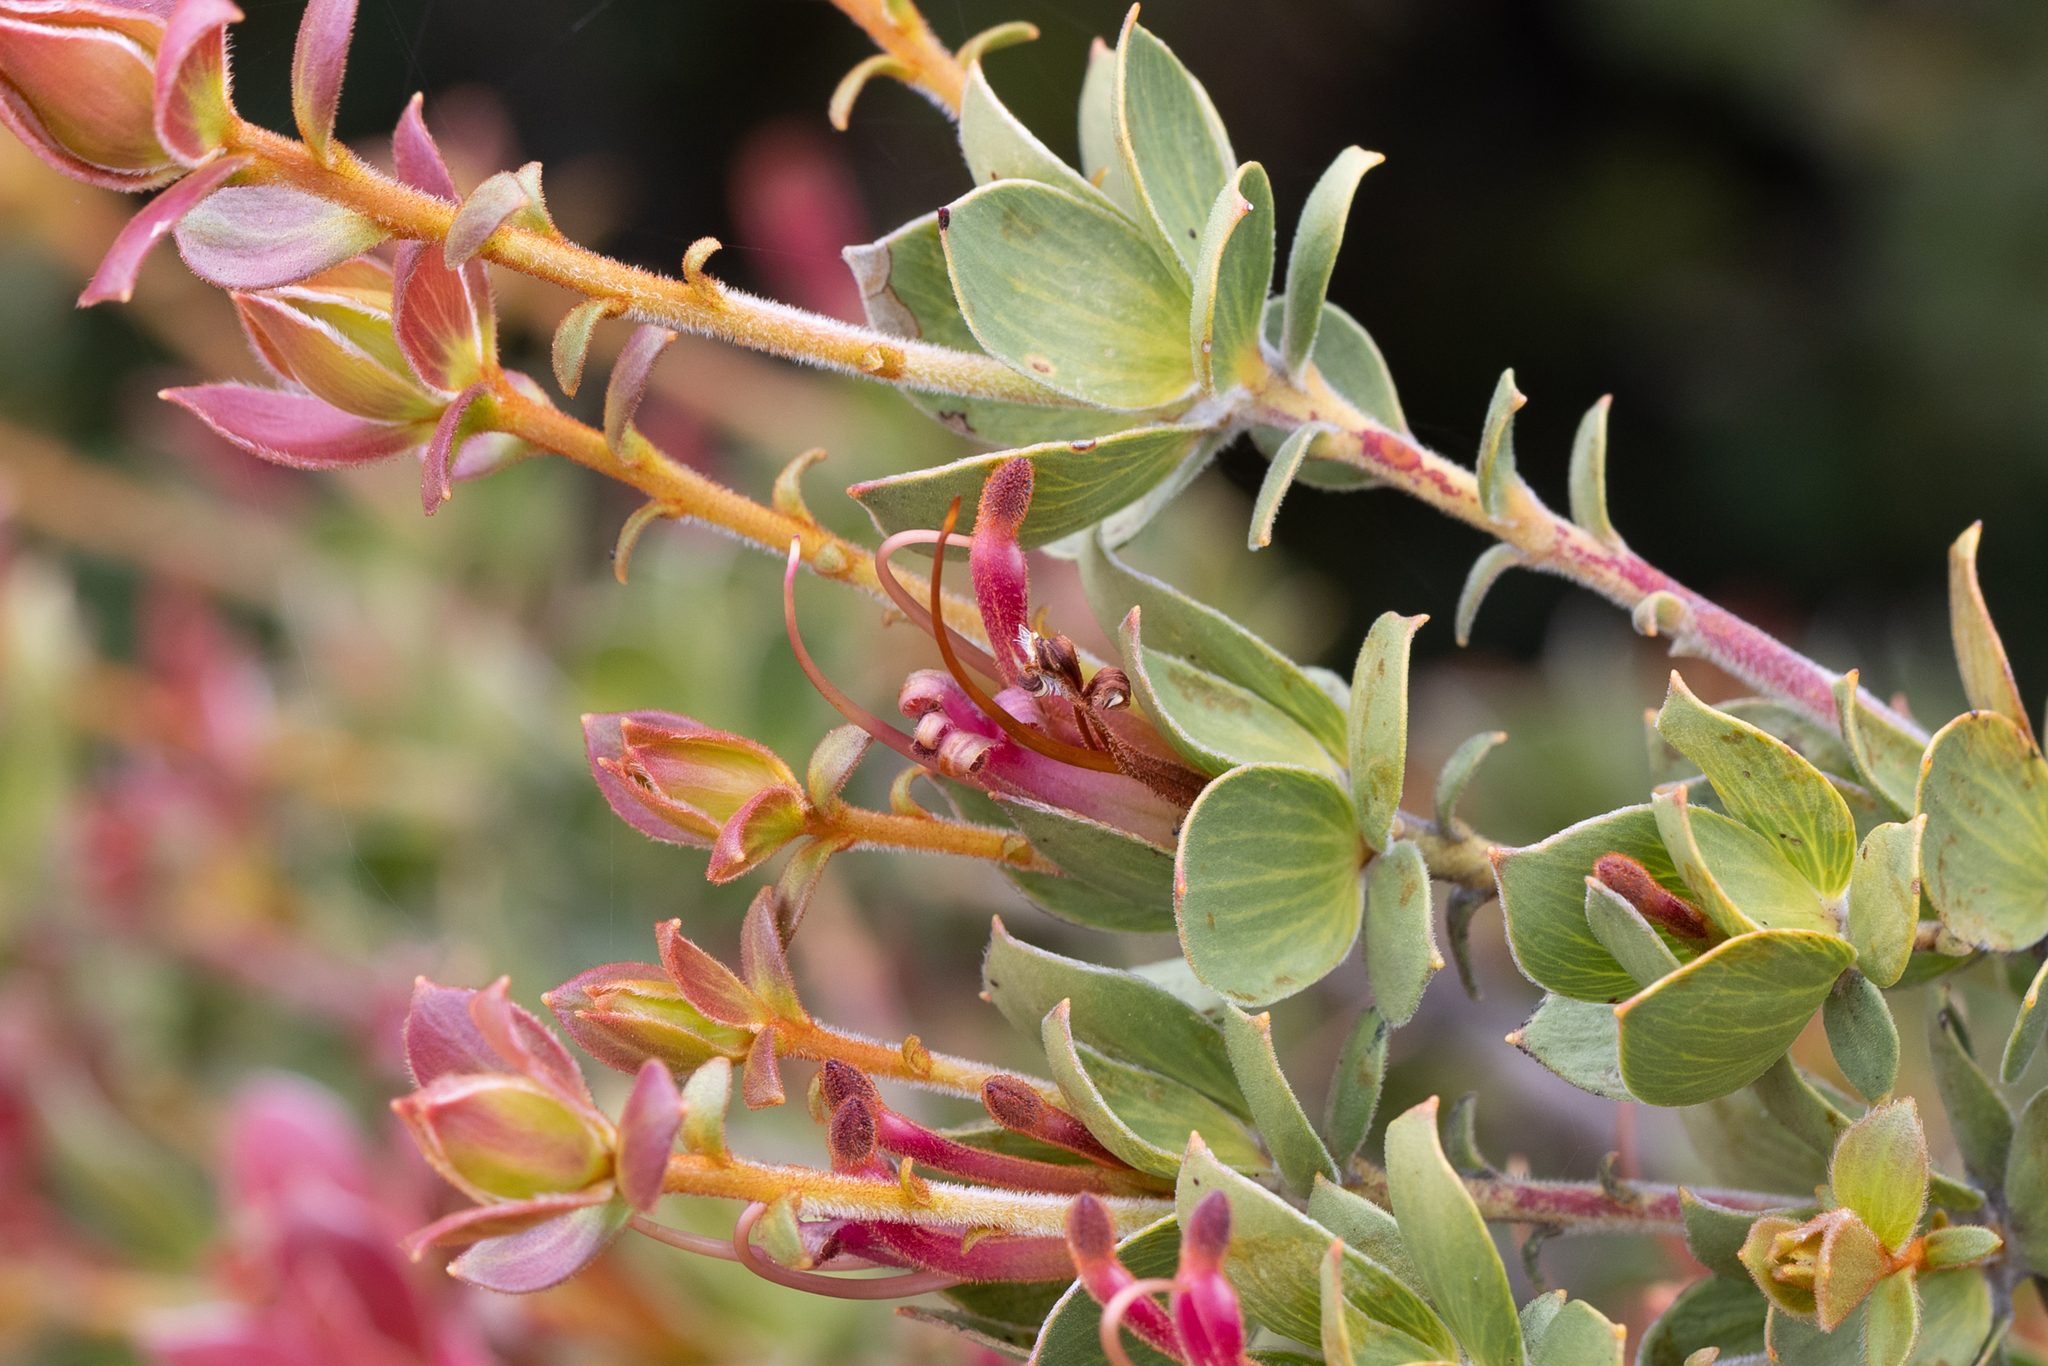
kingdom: Plantae
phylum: Tracheophyta
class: Magnoliopsida
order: Proteales
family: Proteaceae
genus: Adenanthos
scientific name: Adenanthos venosus
